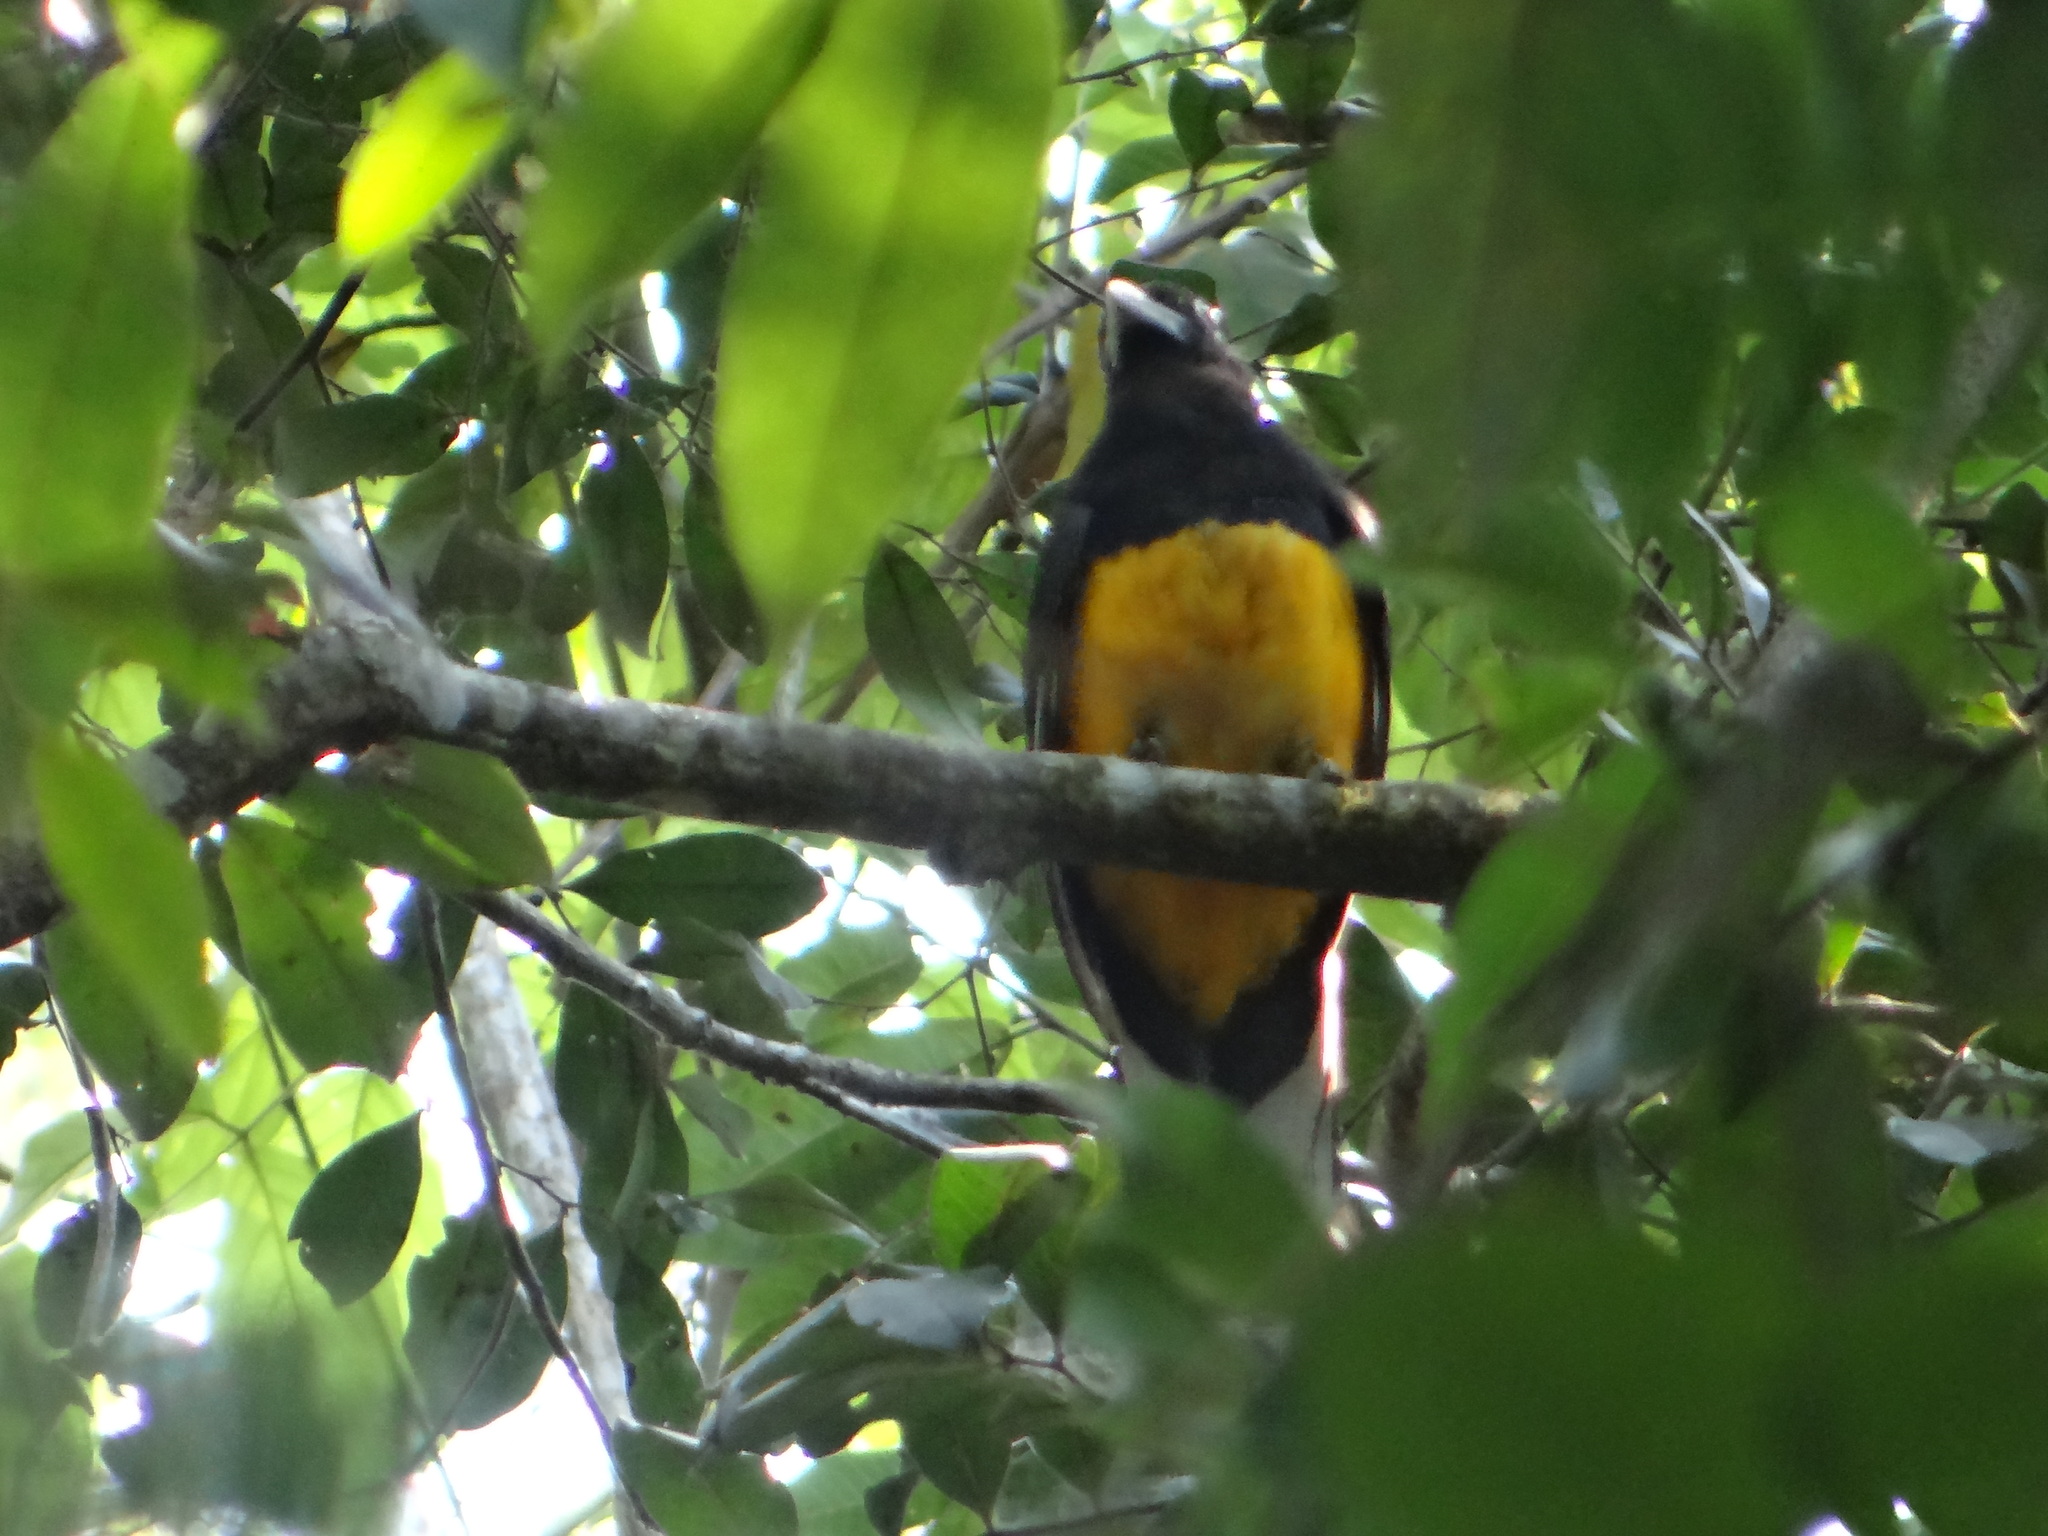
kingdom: Animalia
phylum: Chordata
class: Aves
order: Trogoniformes
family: Trogonidae
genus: Trogon
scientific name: Trogon viridis
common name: Green-backed trogon
